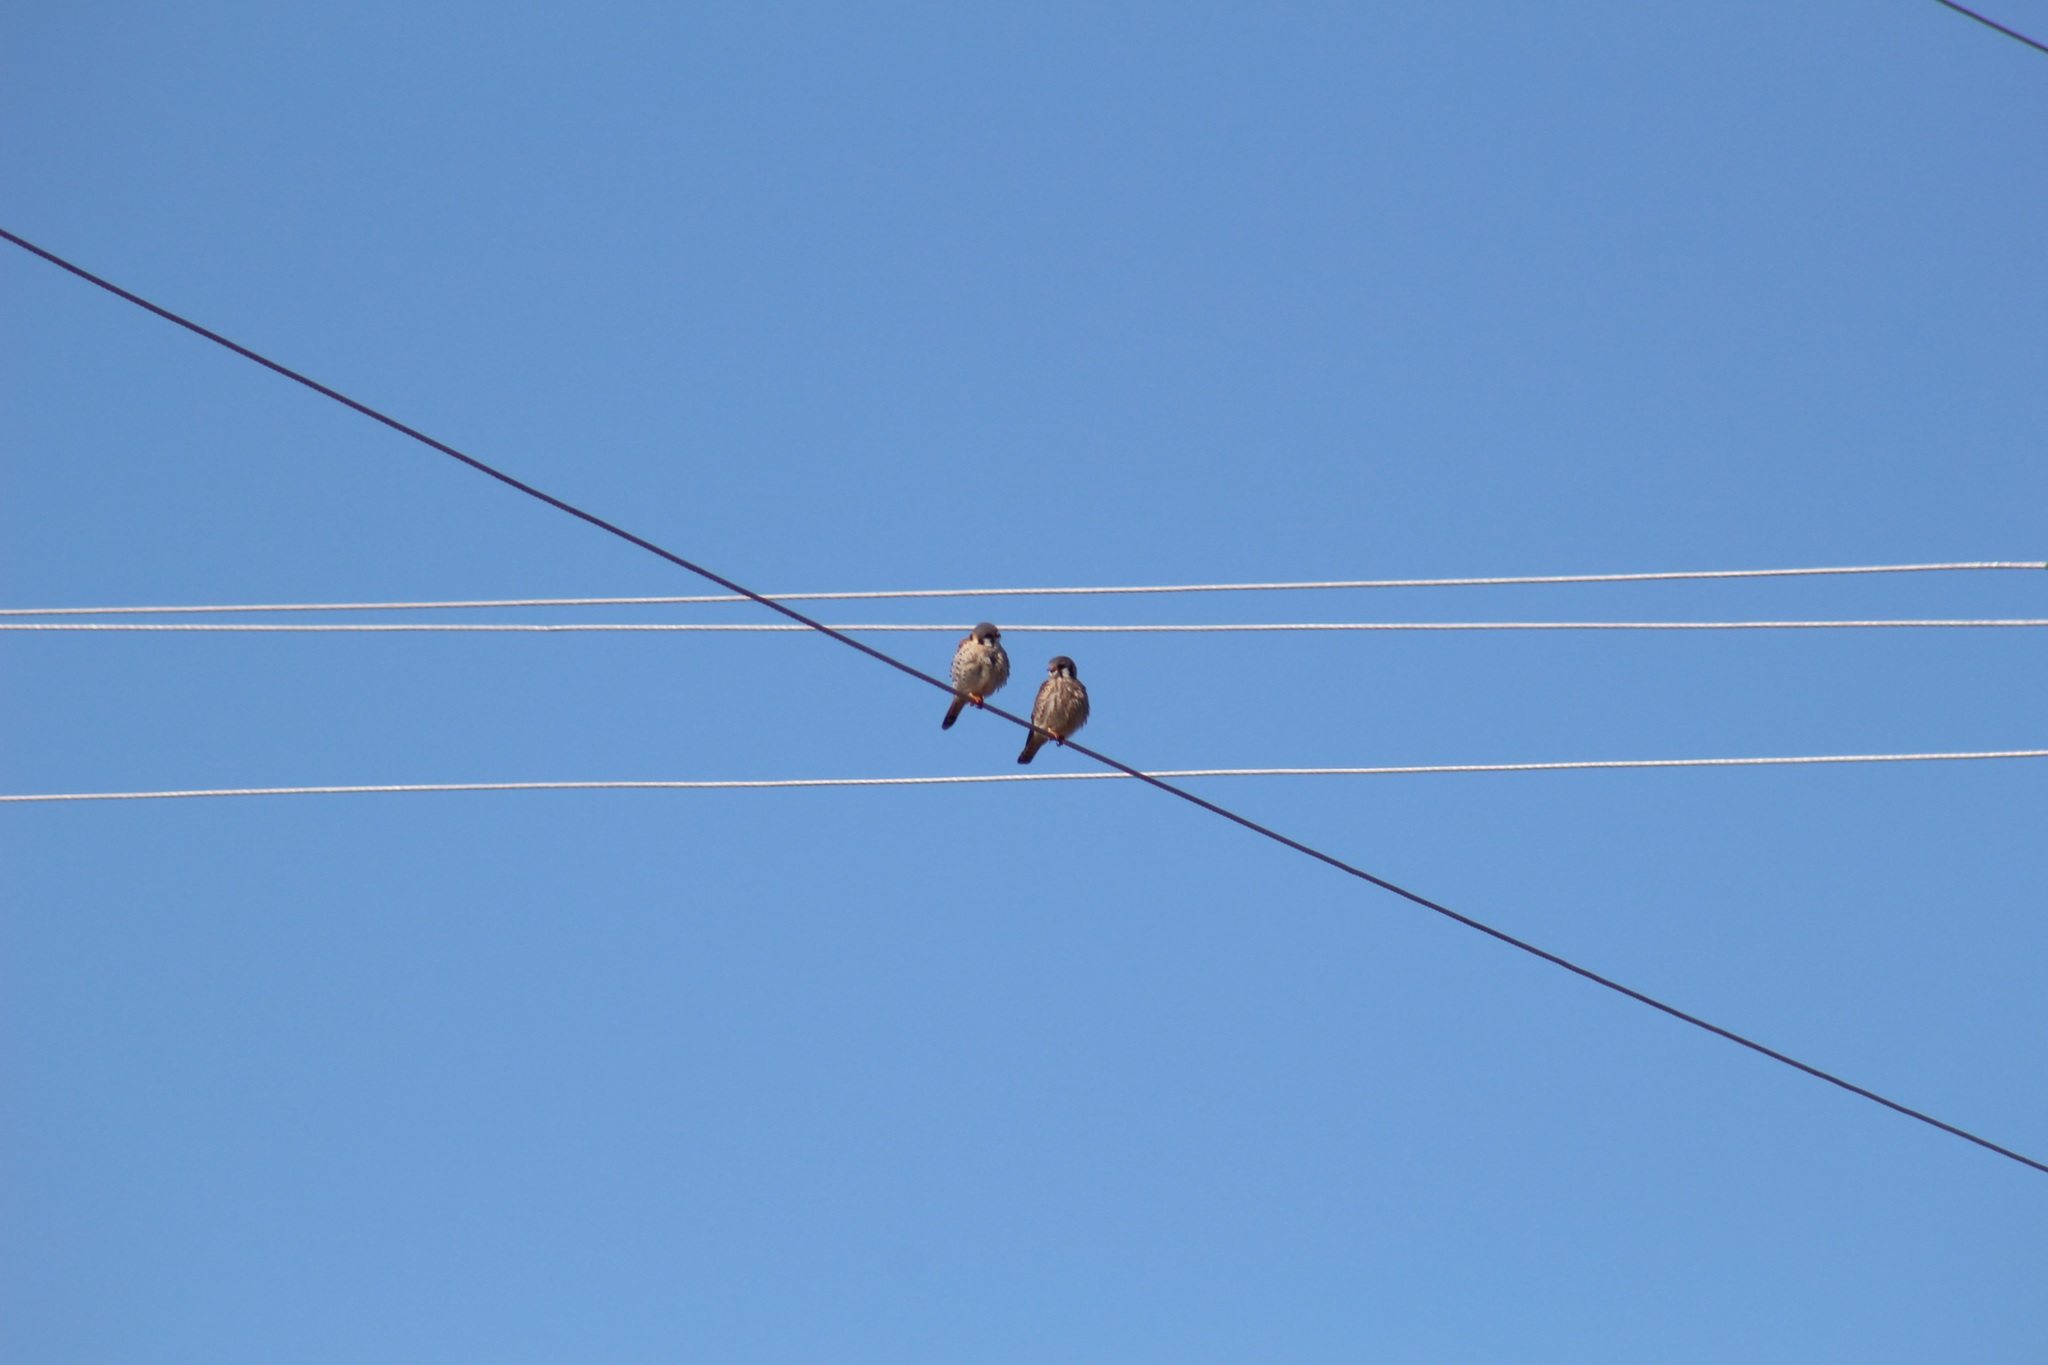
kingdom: Animalia
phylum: Chordata
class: Aves
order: Falconiformes
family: Falconidae
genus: Falco
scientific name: Falco sparverius
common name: American kestrel
